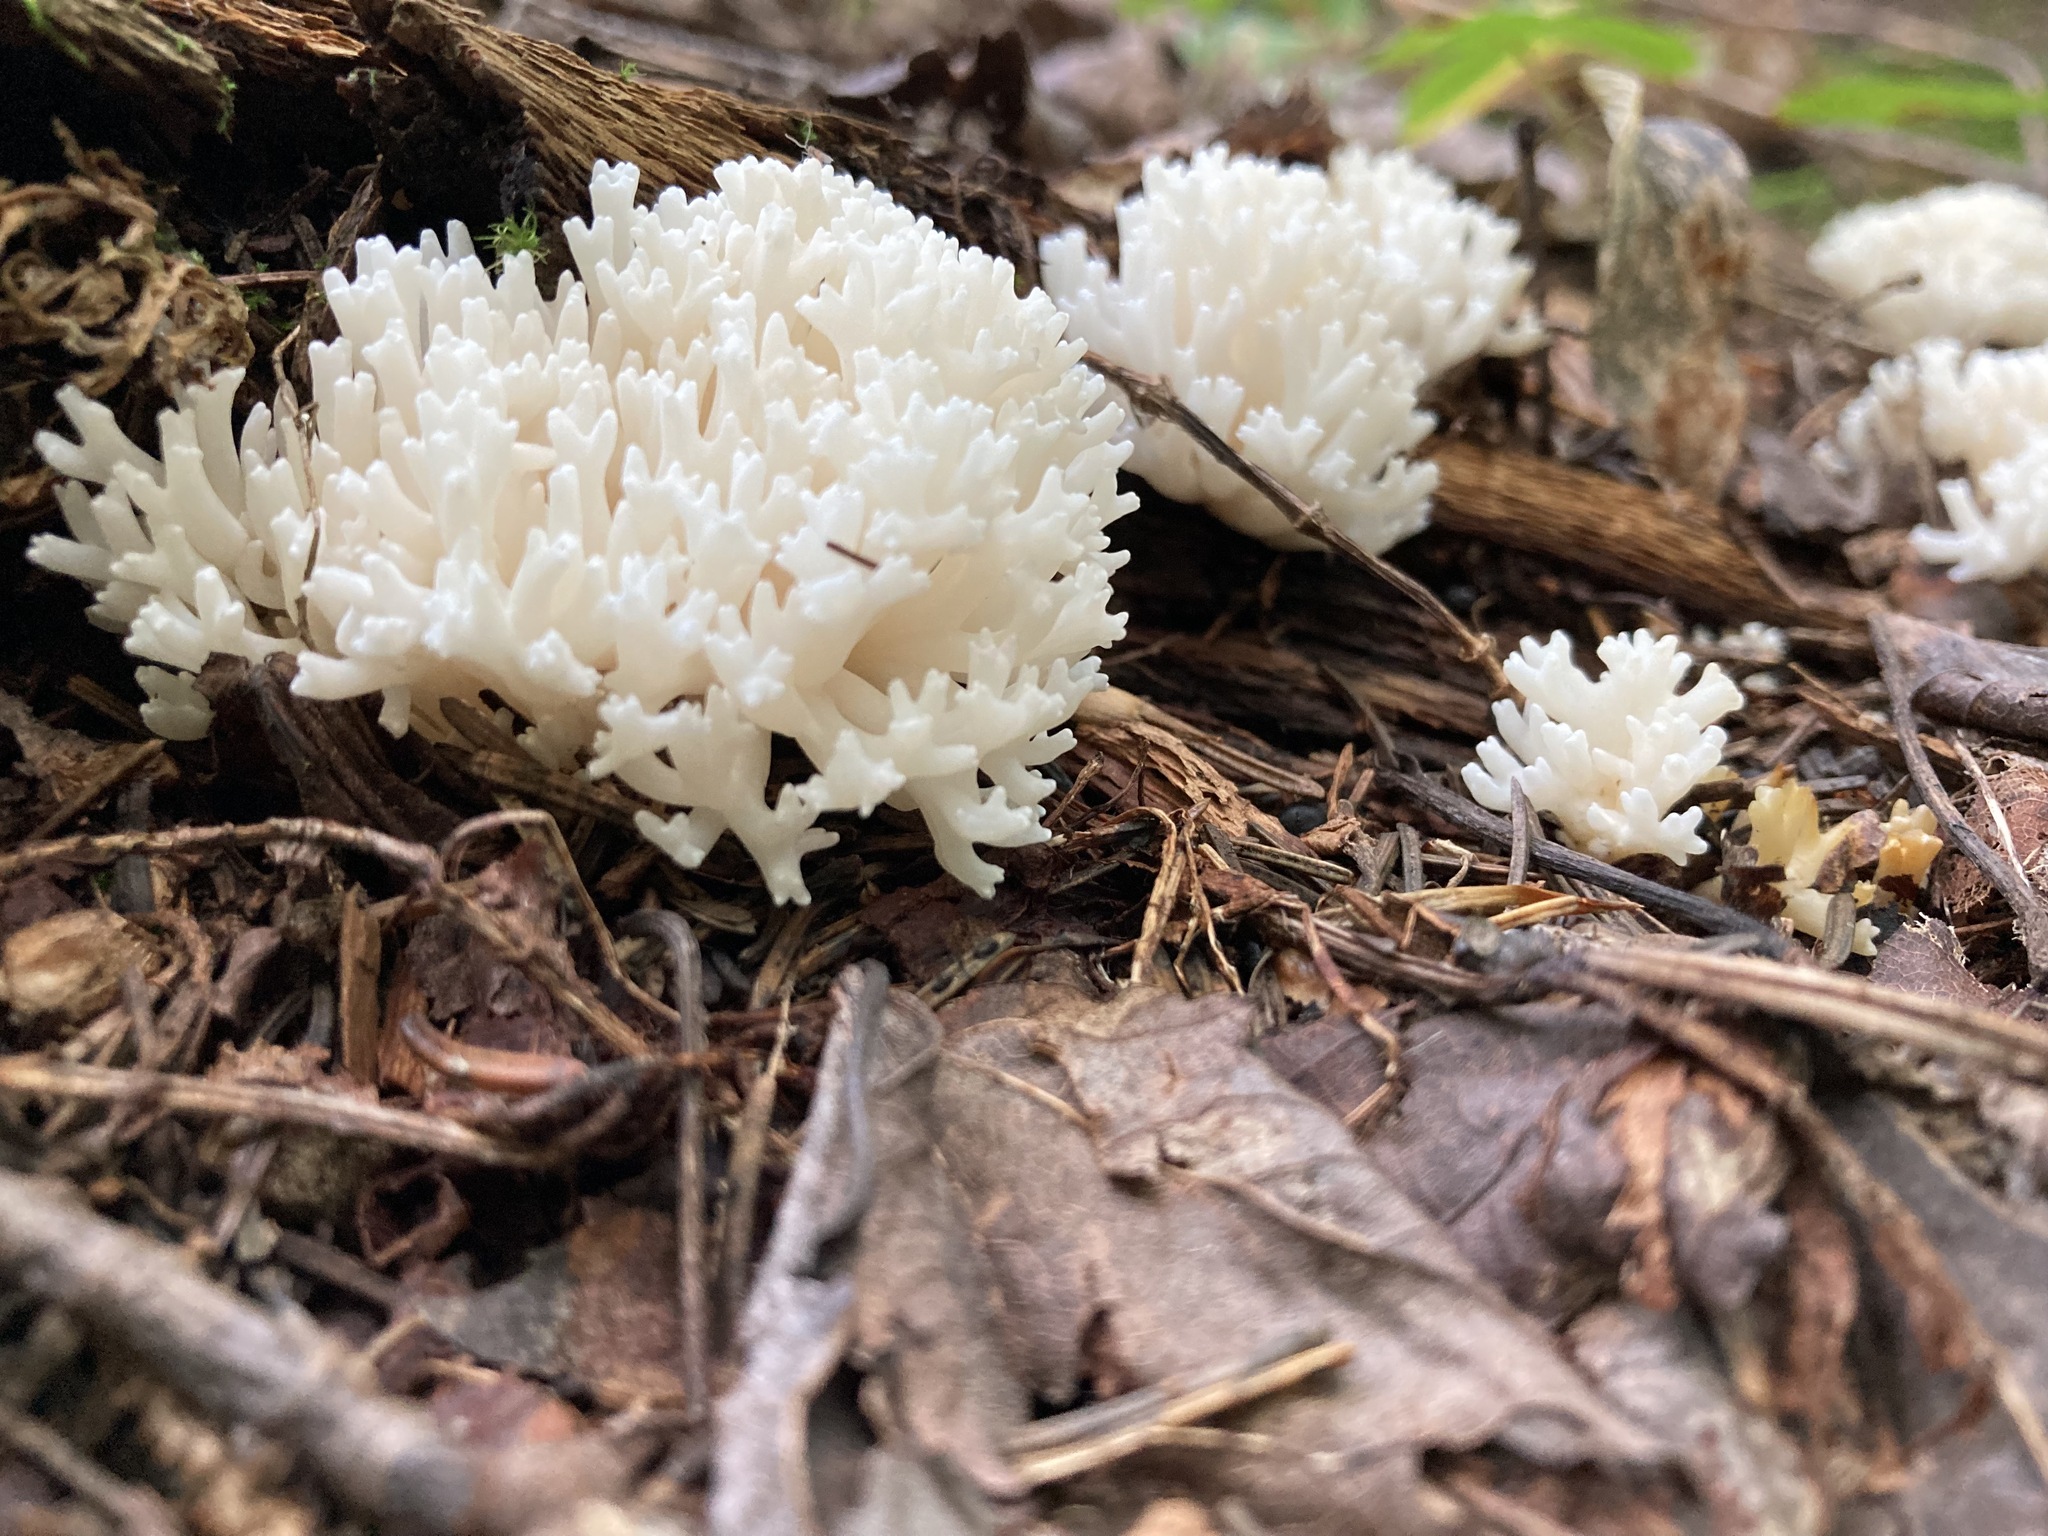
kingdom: Fungi
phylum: Basidiomycota
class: Agaricomycetes
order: Agaricales
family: Clavariaceae
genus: Ramariopsis
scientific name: Ramariopsis kunzei
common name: Ivory coral
